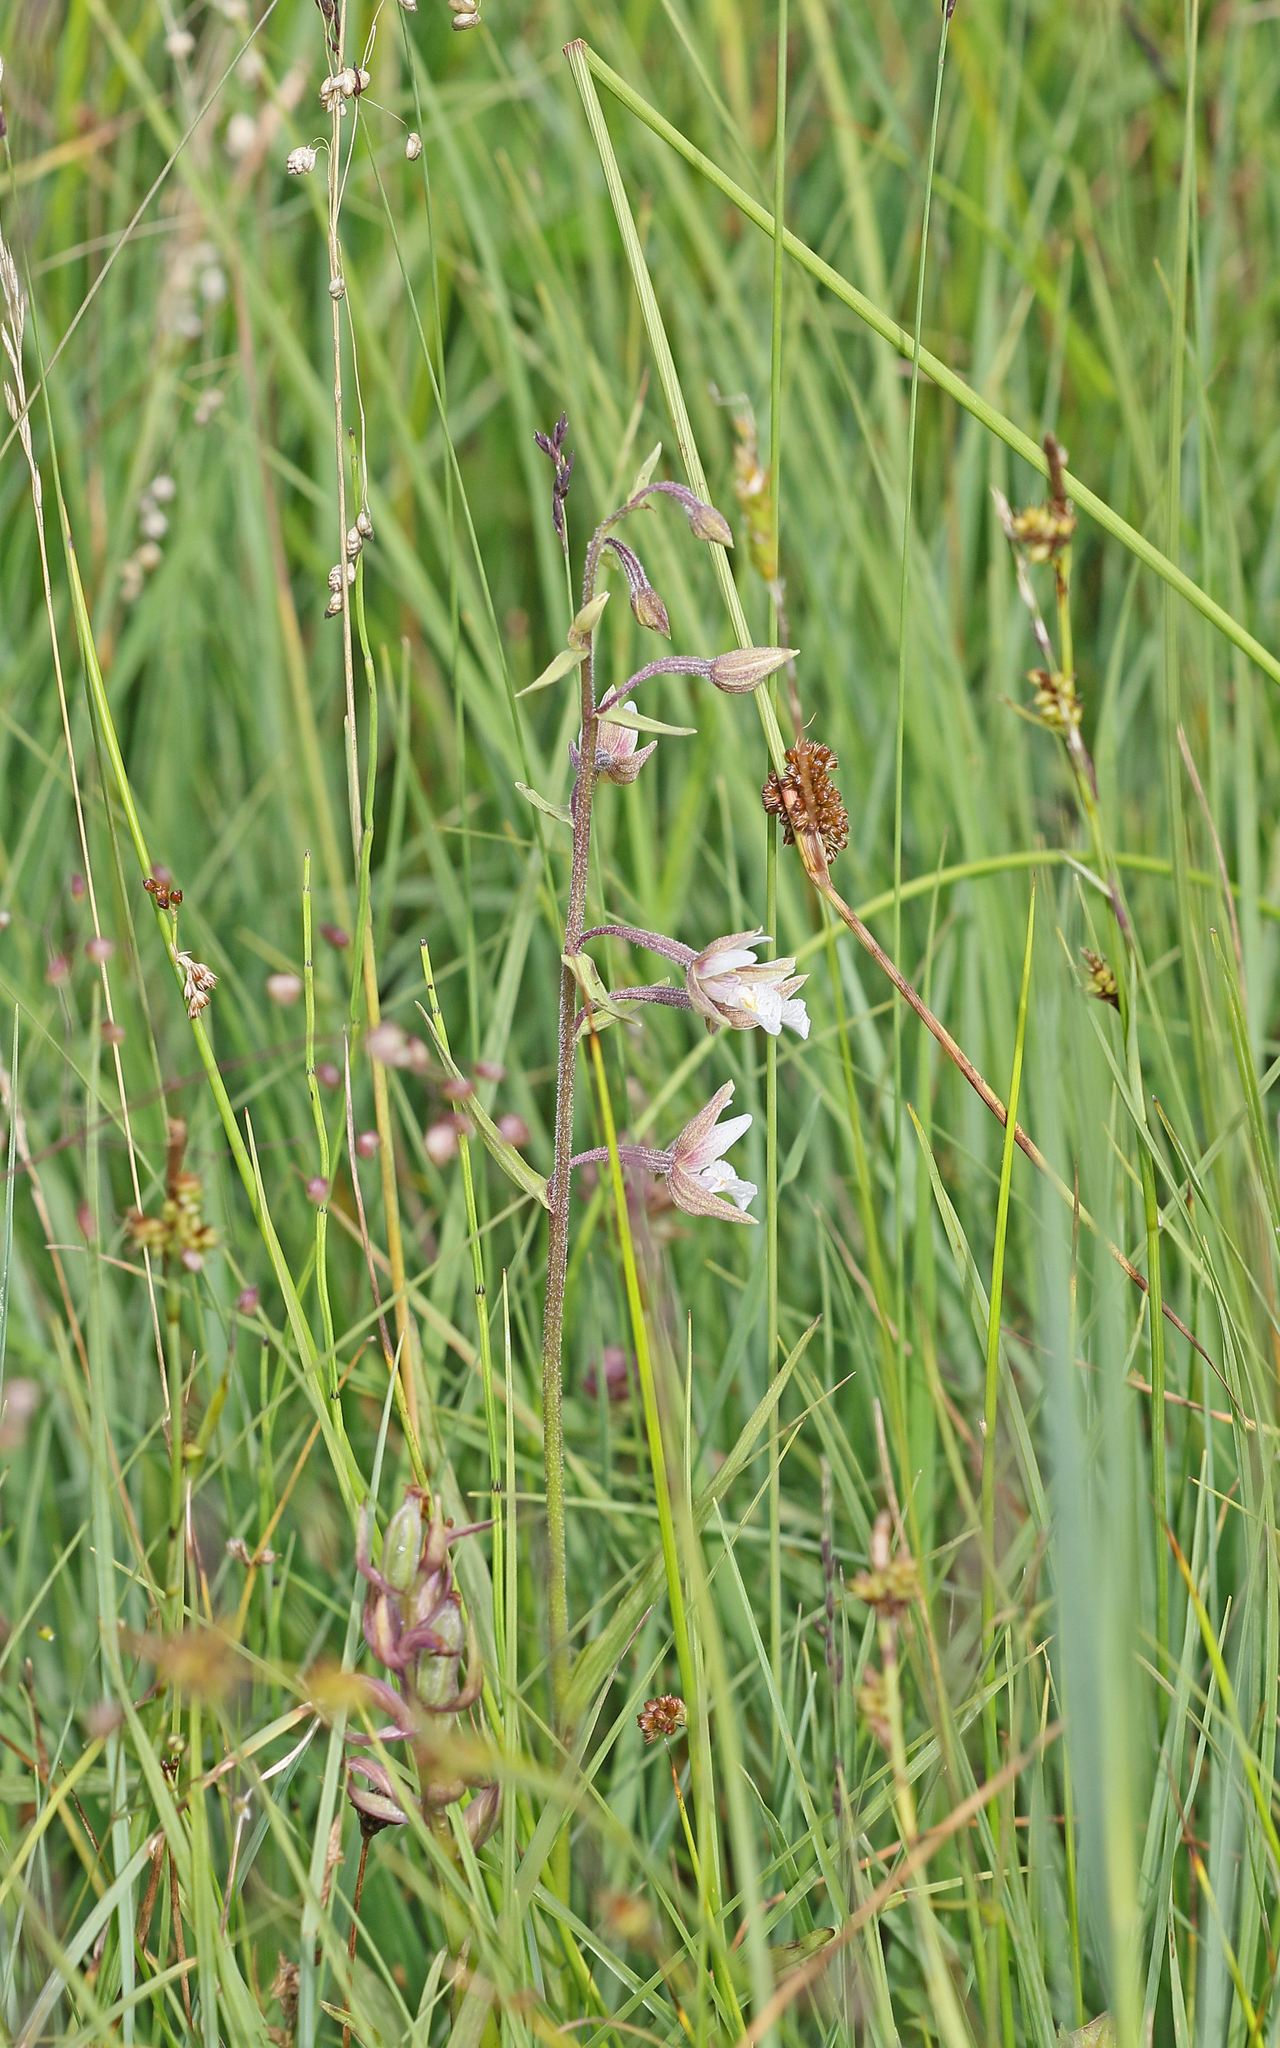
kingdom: Plantae
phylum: Tracheophyta
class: Liliopsida
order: Asparagales
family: Orchidaceae
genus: Epipactis
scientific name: Epipactis palustris
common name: Marsh helleborine
